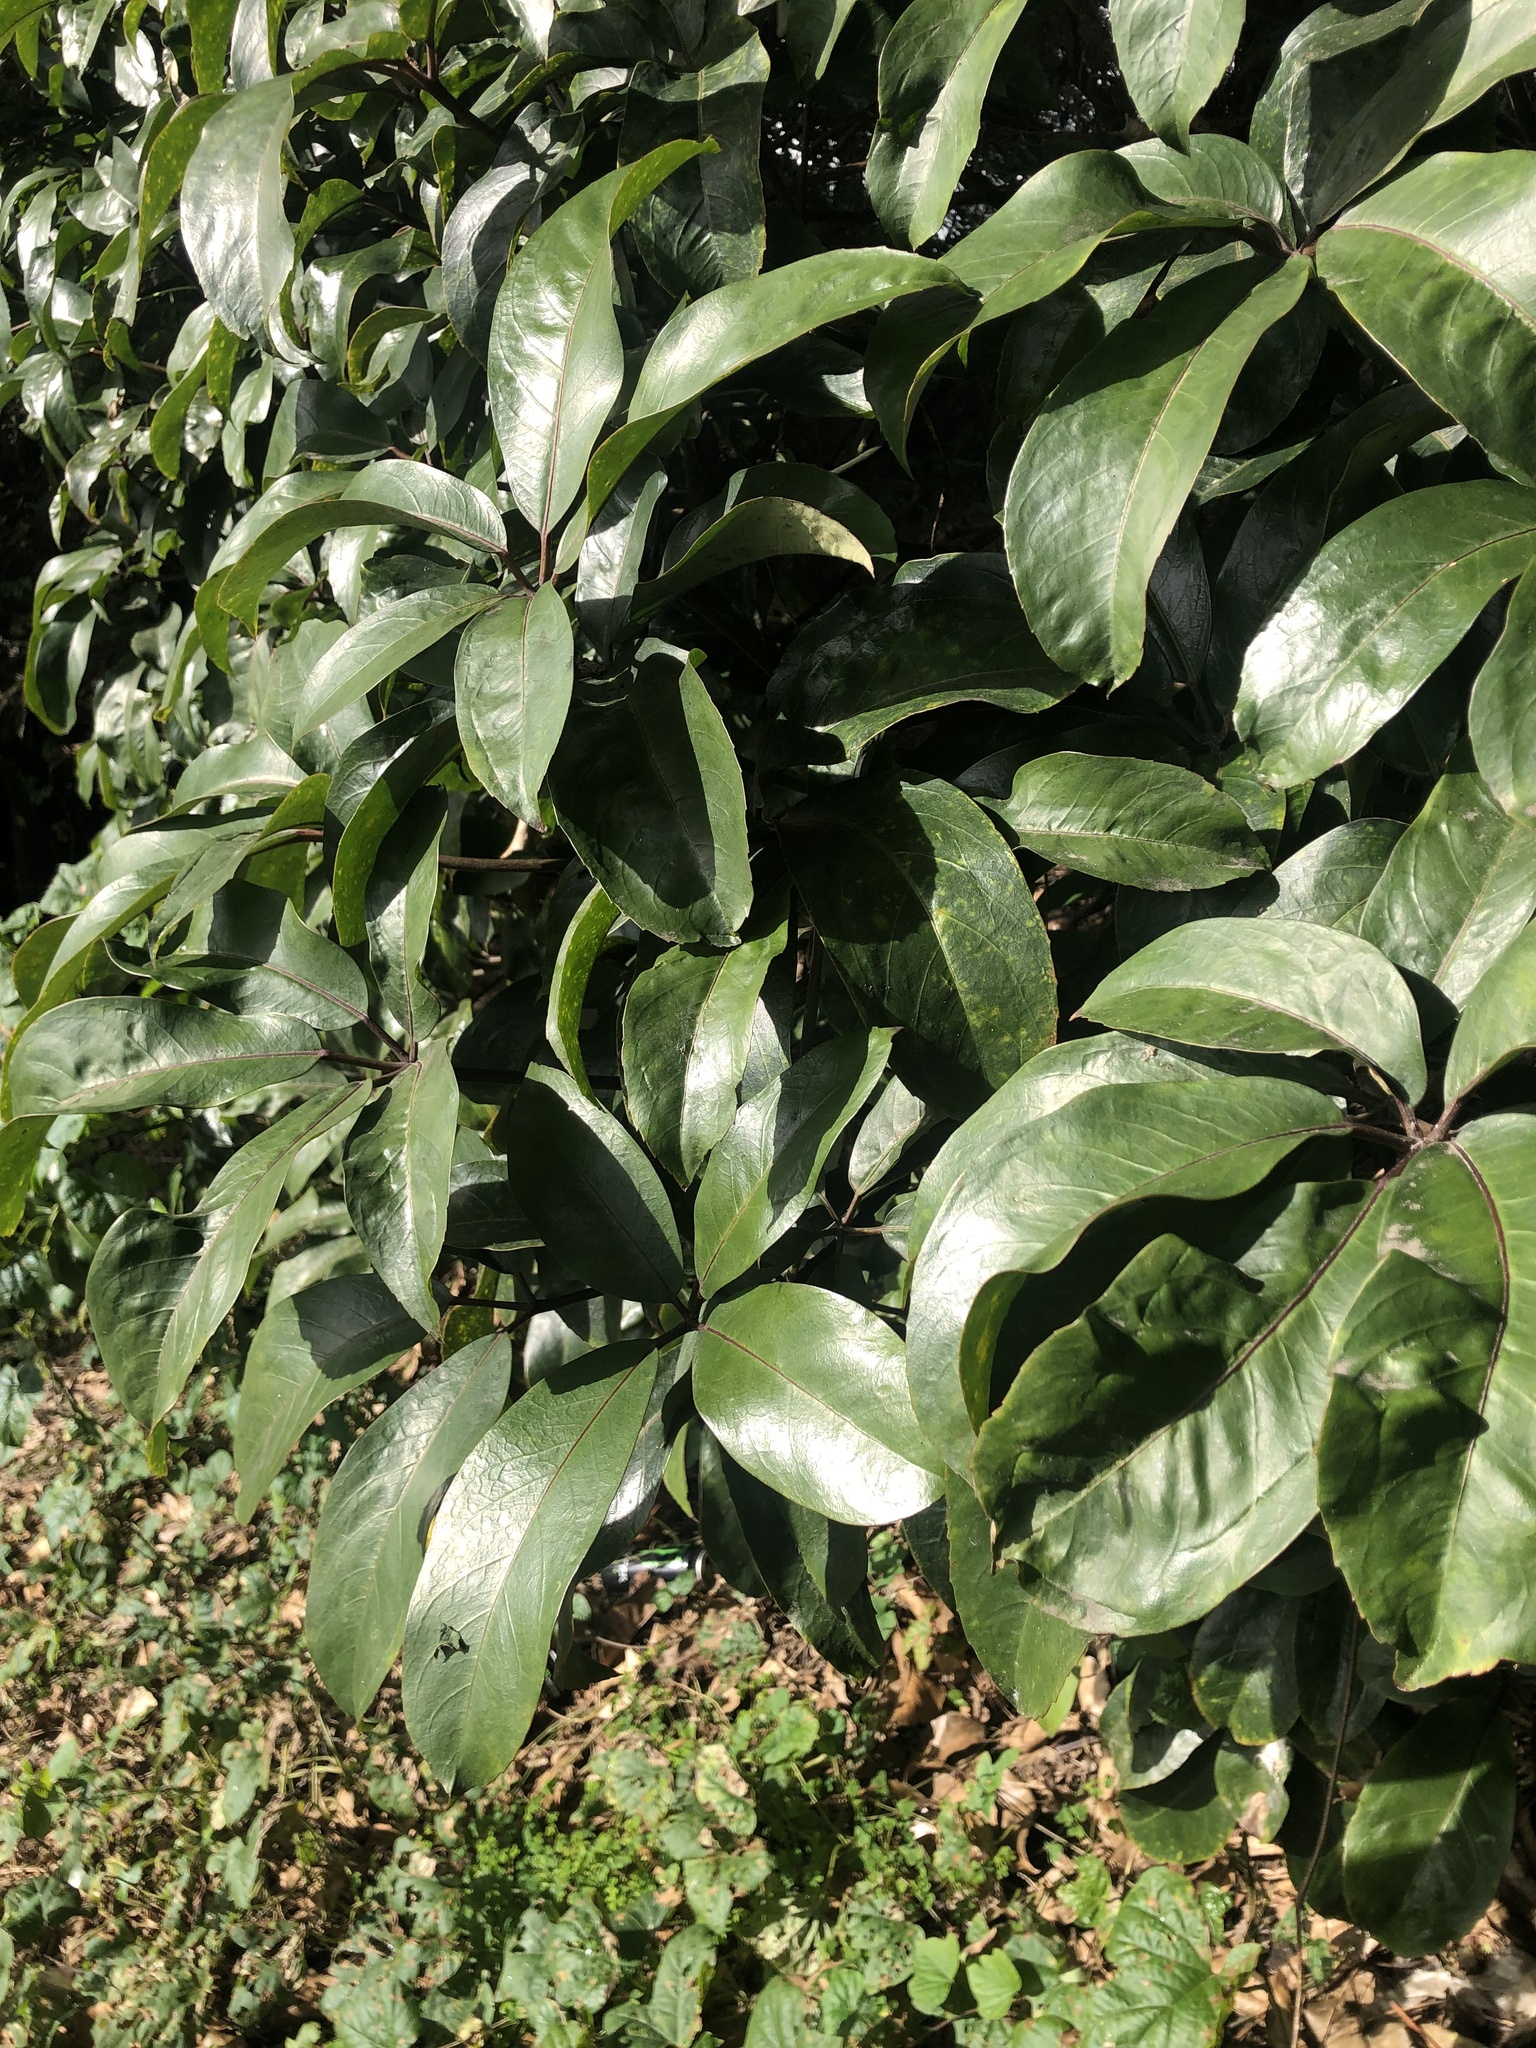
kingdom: Plantae
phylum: Tracheophyta
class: Magnoliopsida
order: Apiales
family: Araliaceae
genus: Neopanax
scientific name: Neopanax laetus
